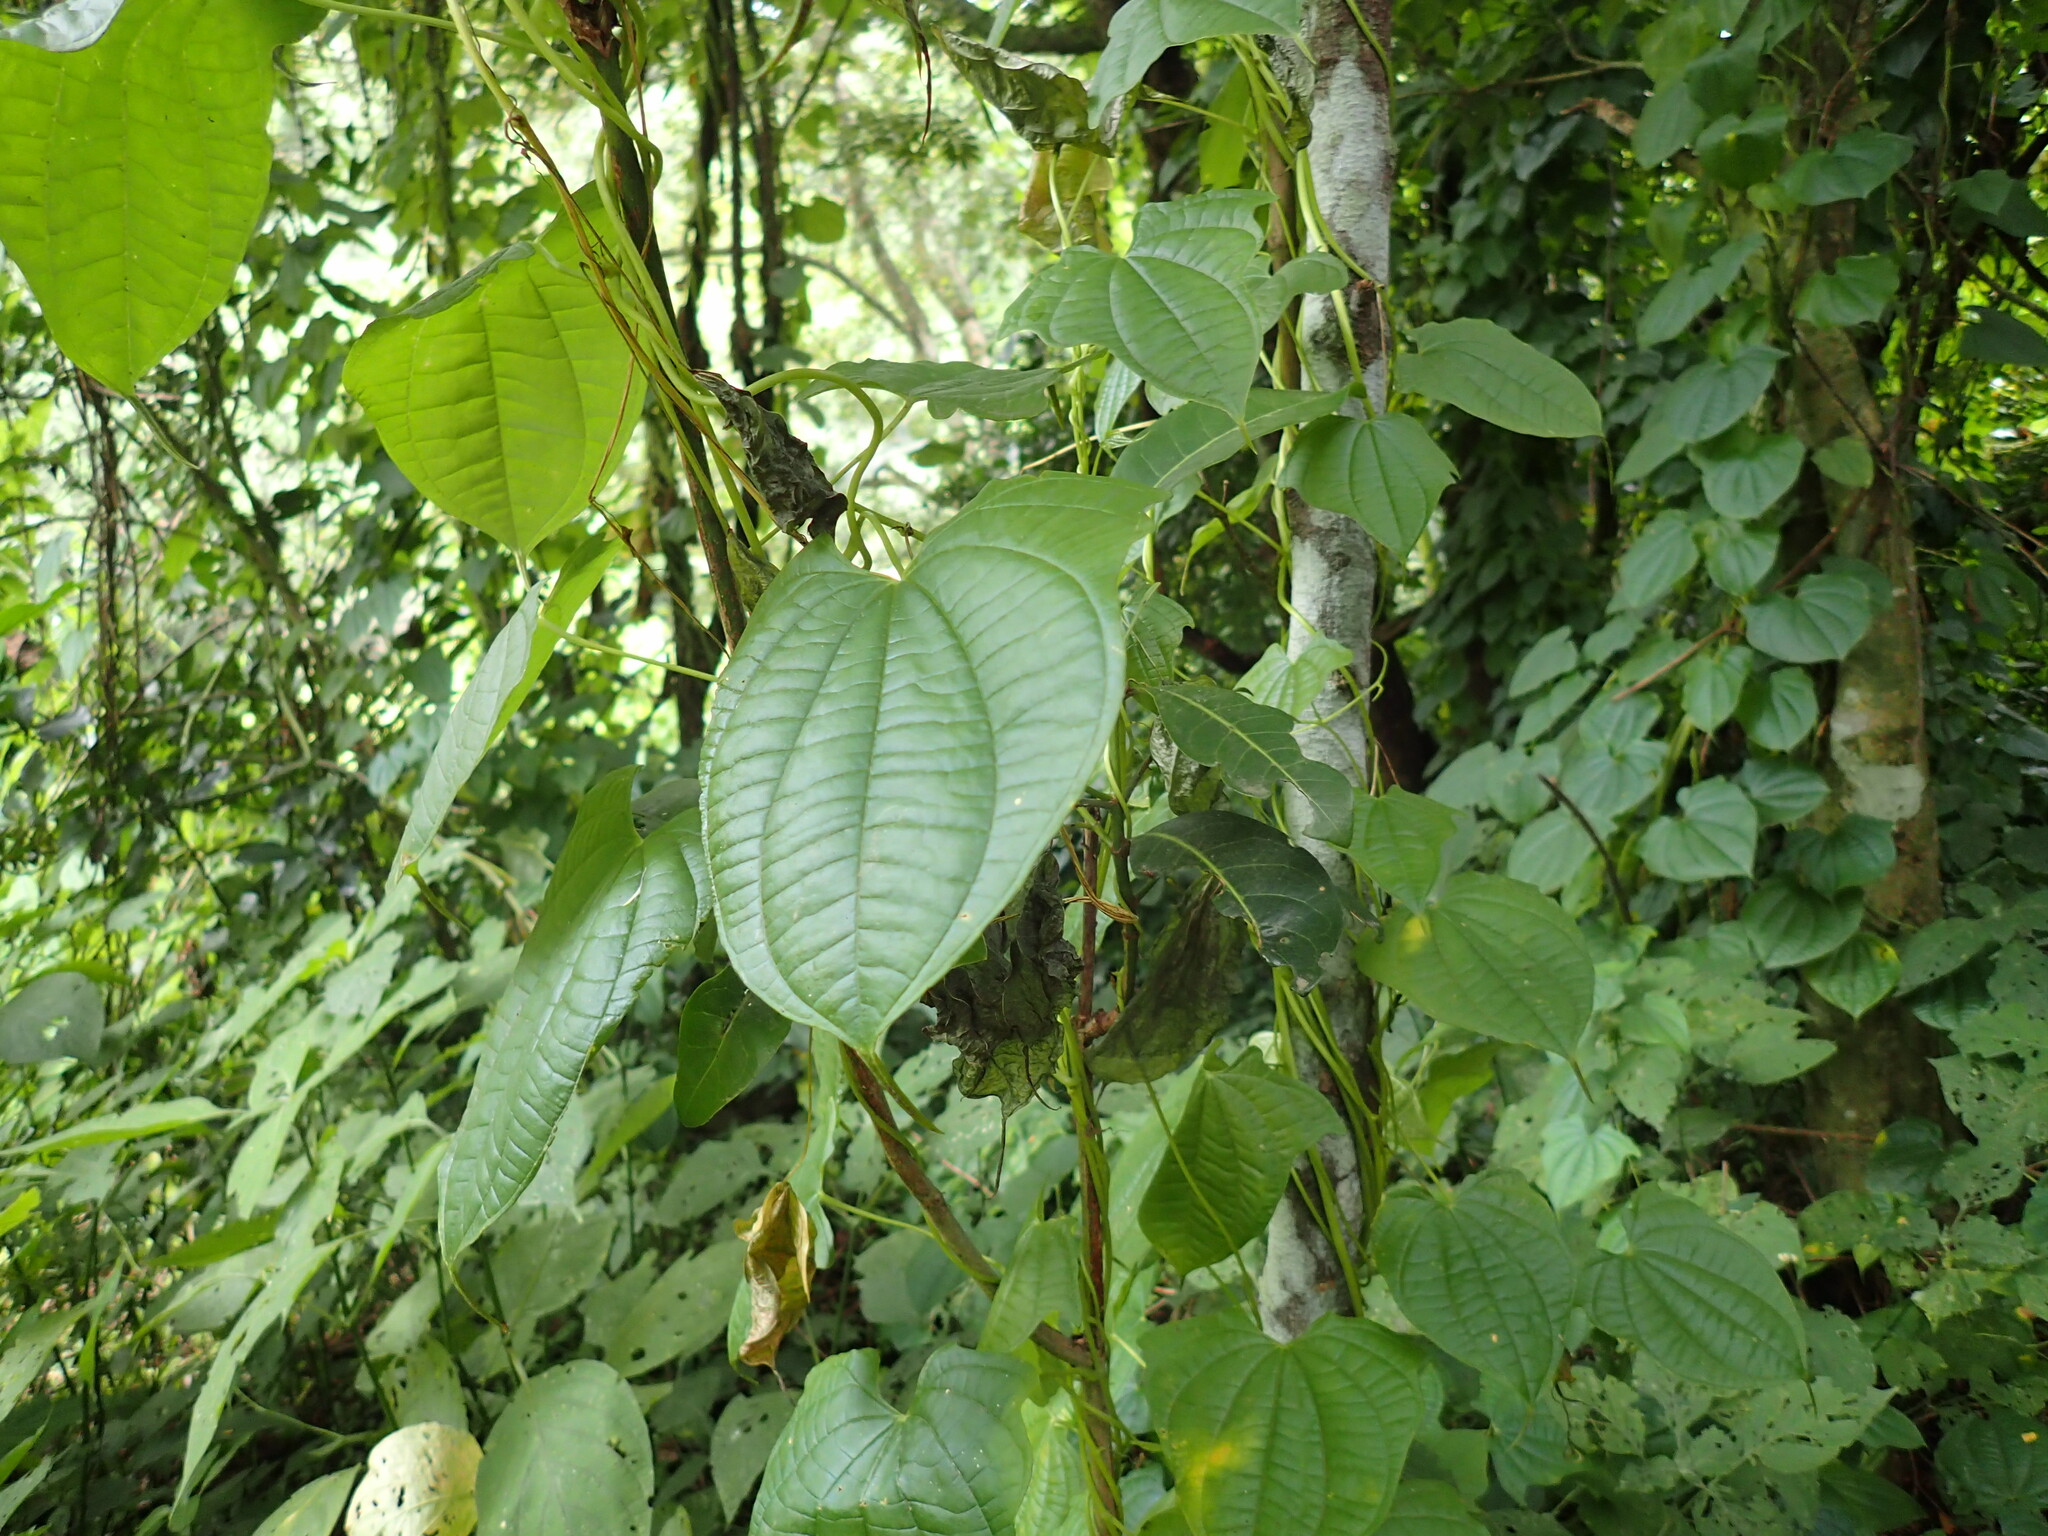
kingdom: Plantae
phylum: Tracheophyta
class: Liliopsida
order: Dioscoreales
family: Dioscoreaceae
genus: Dioscorea
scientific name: Dioscorea bulbifera
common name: Air yam
